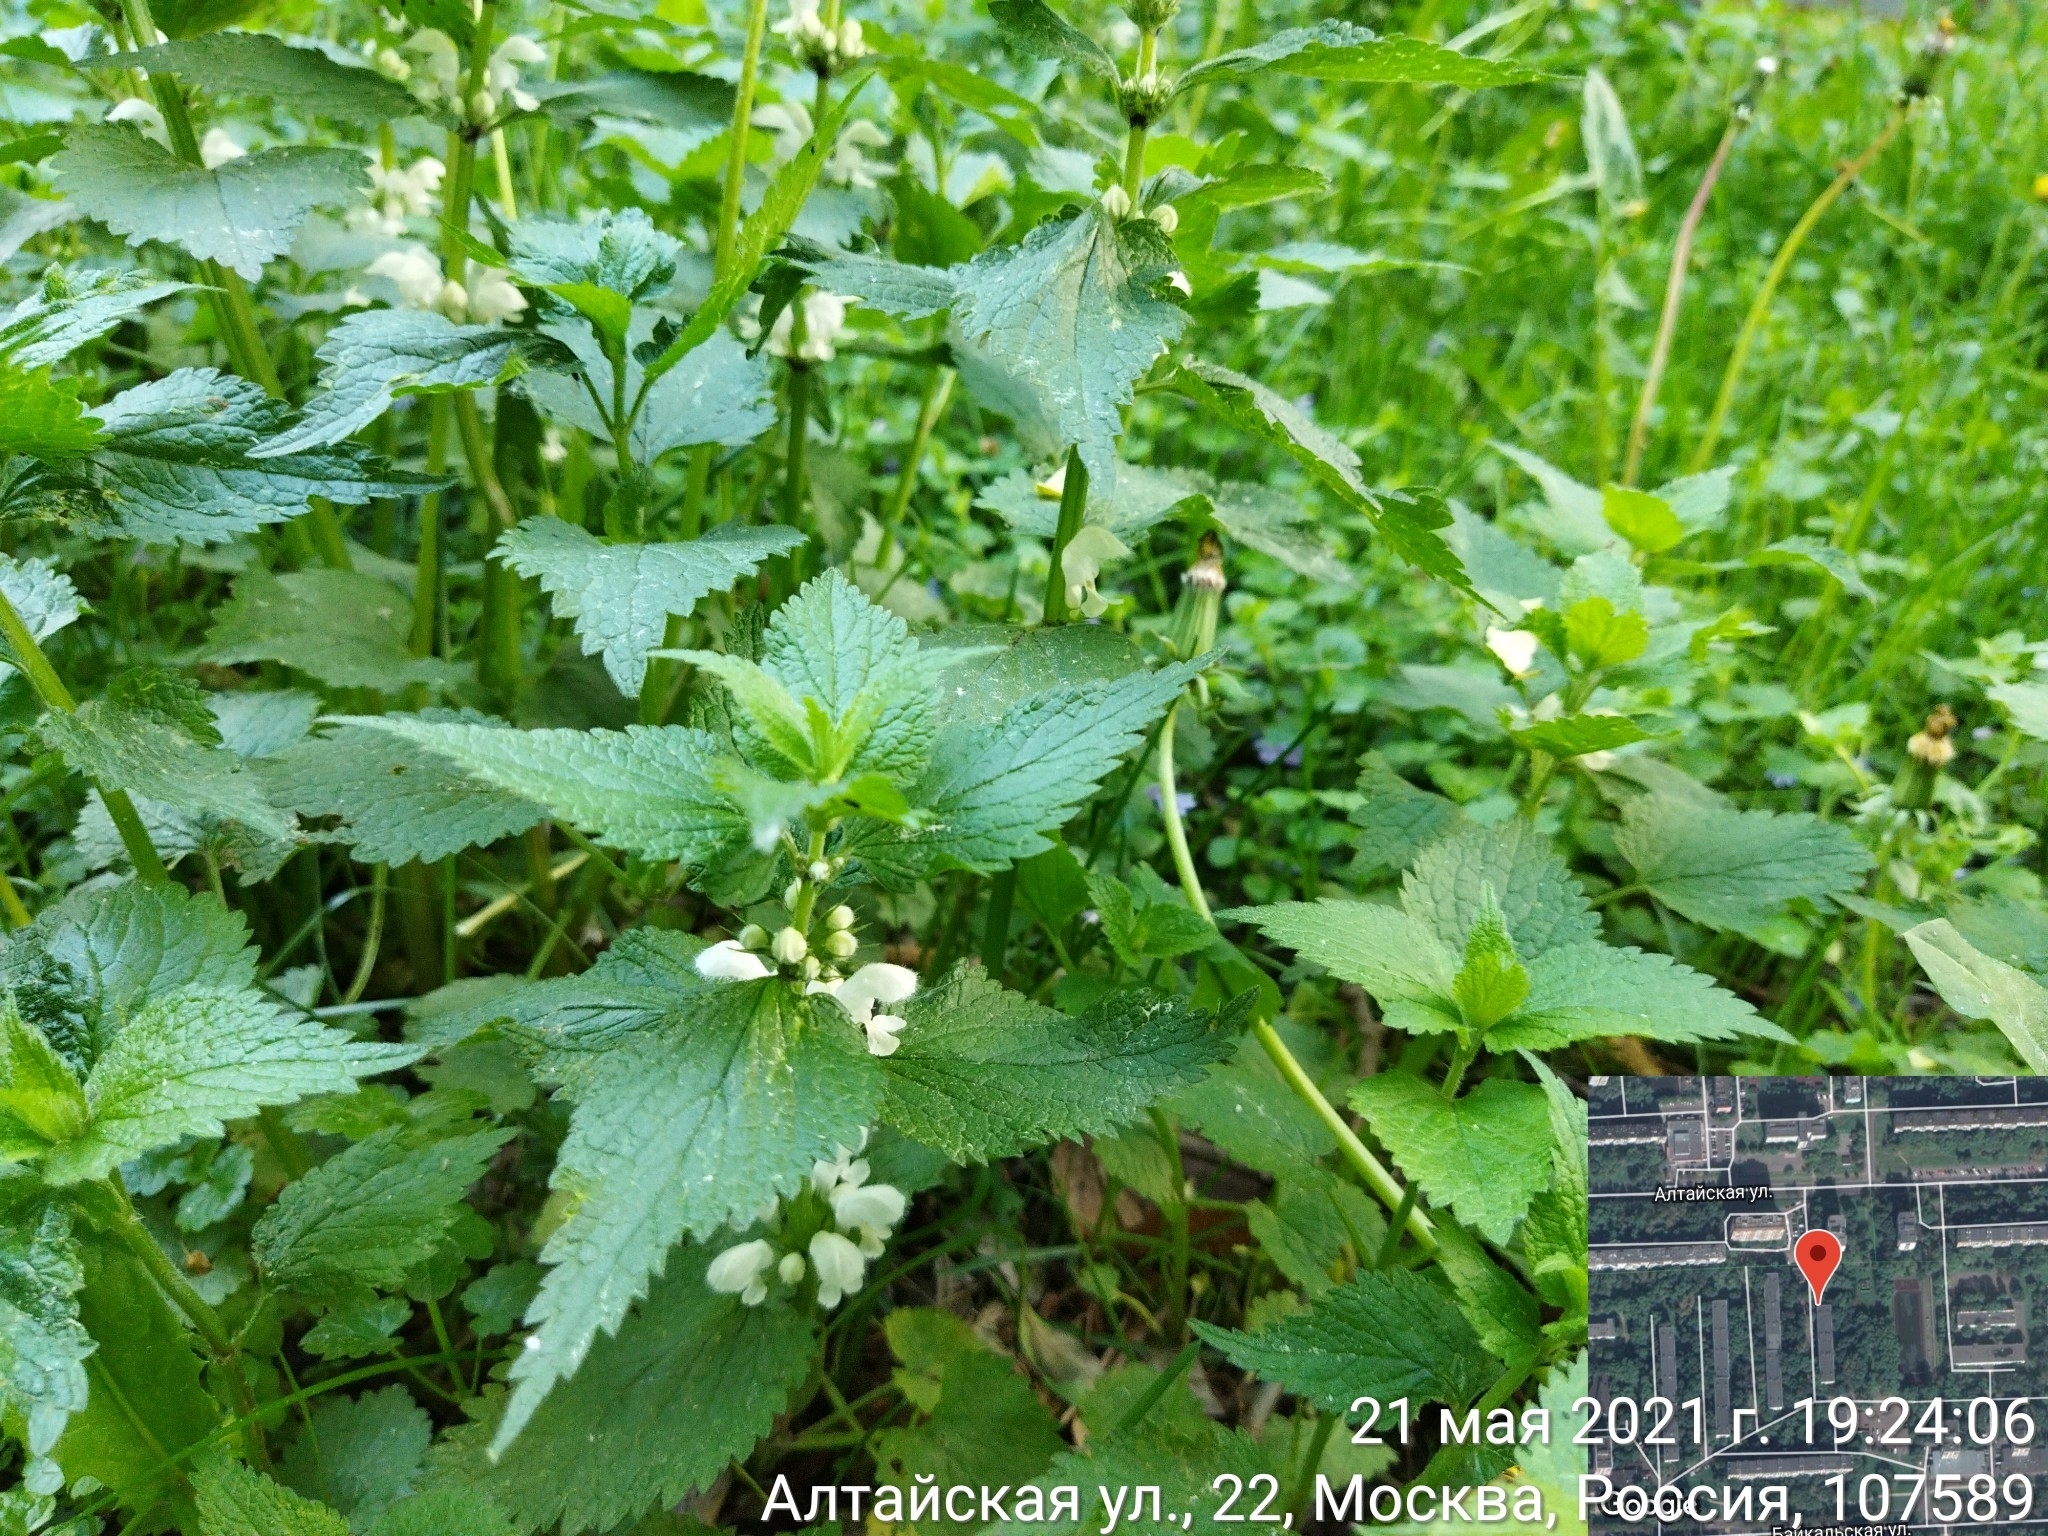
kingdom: Plantae
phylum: Tracheophyta
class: Magnoliopsida
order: Lamiales
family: Lamiaceae
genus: Lamium
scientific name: Lamium album
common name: White dead-nettle
